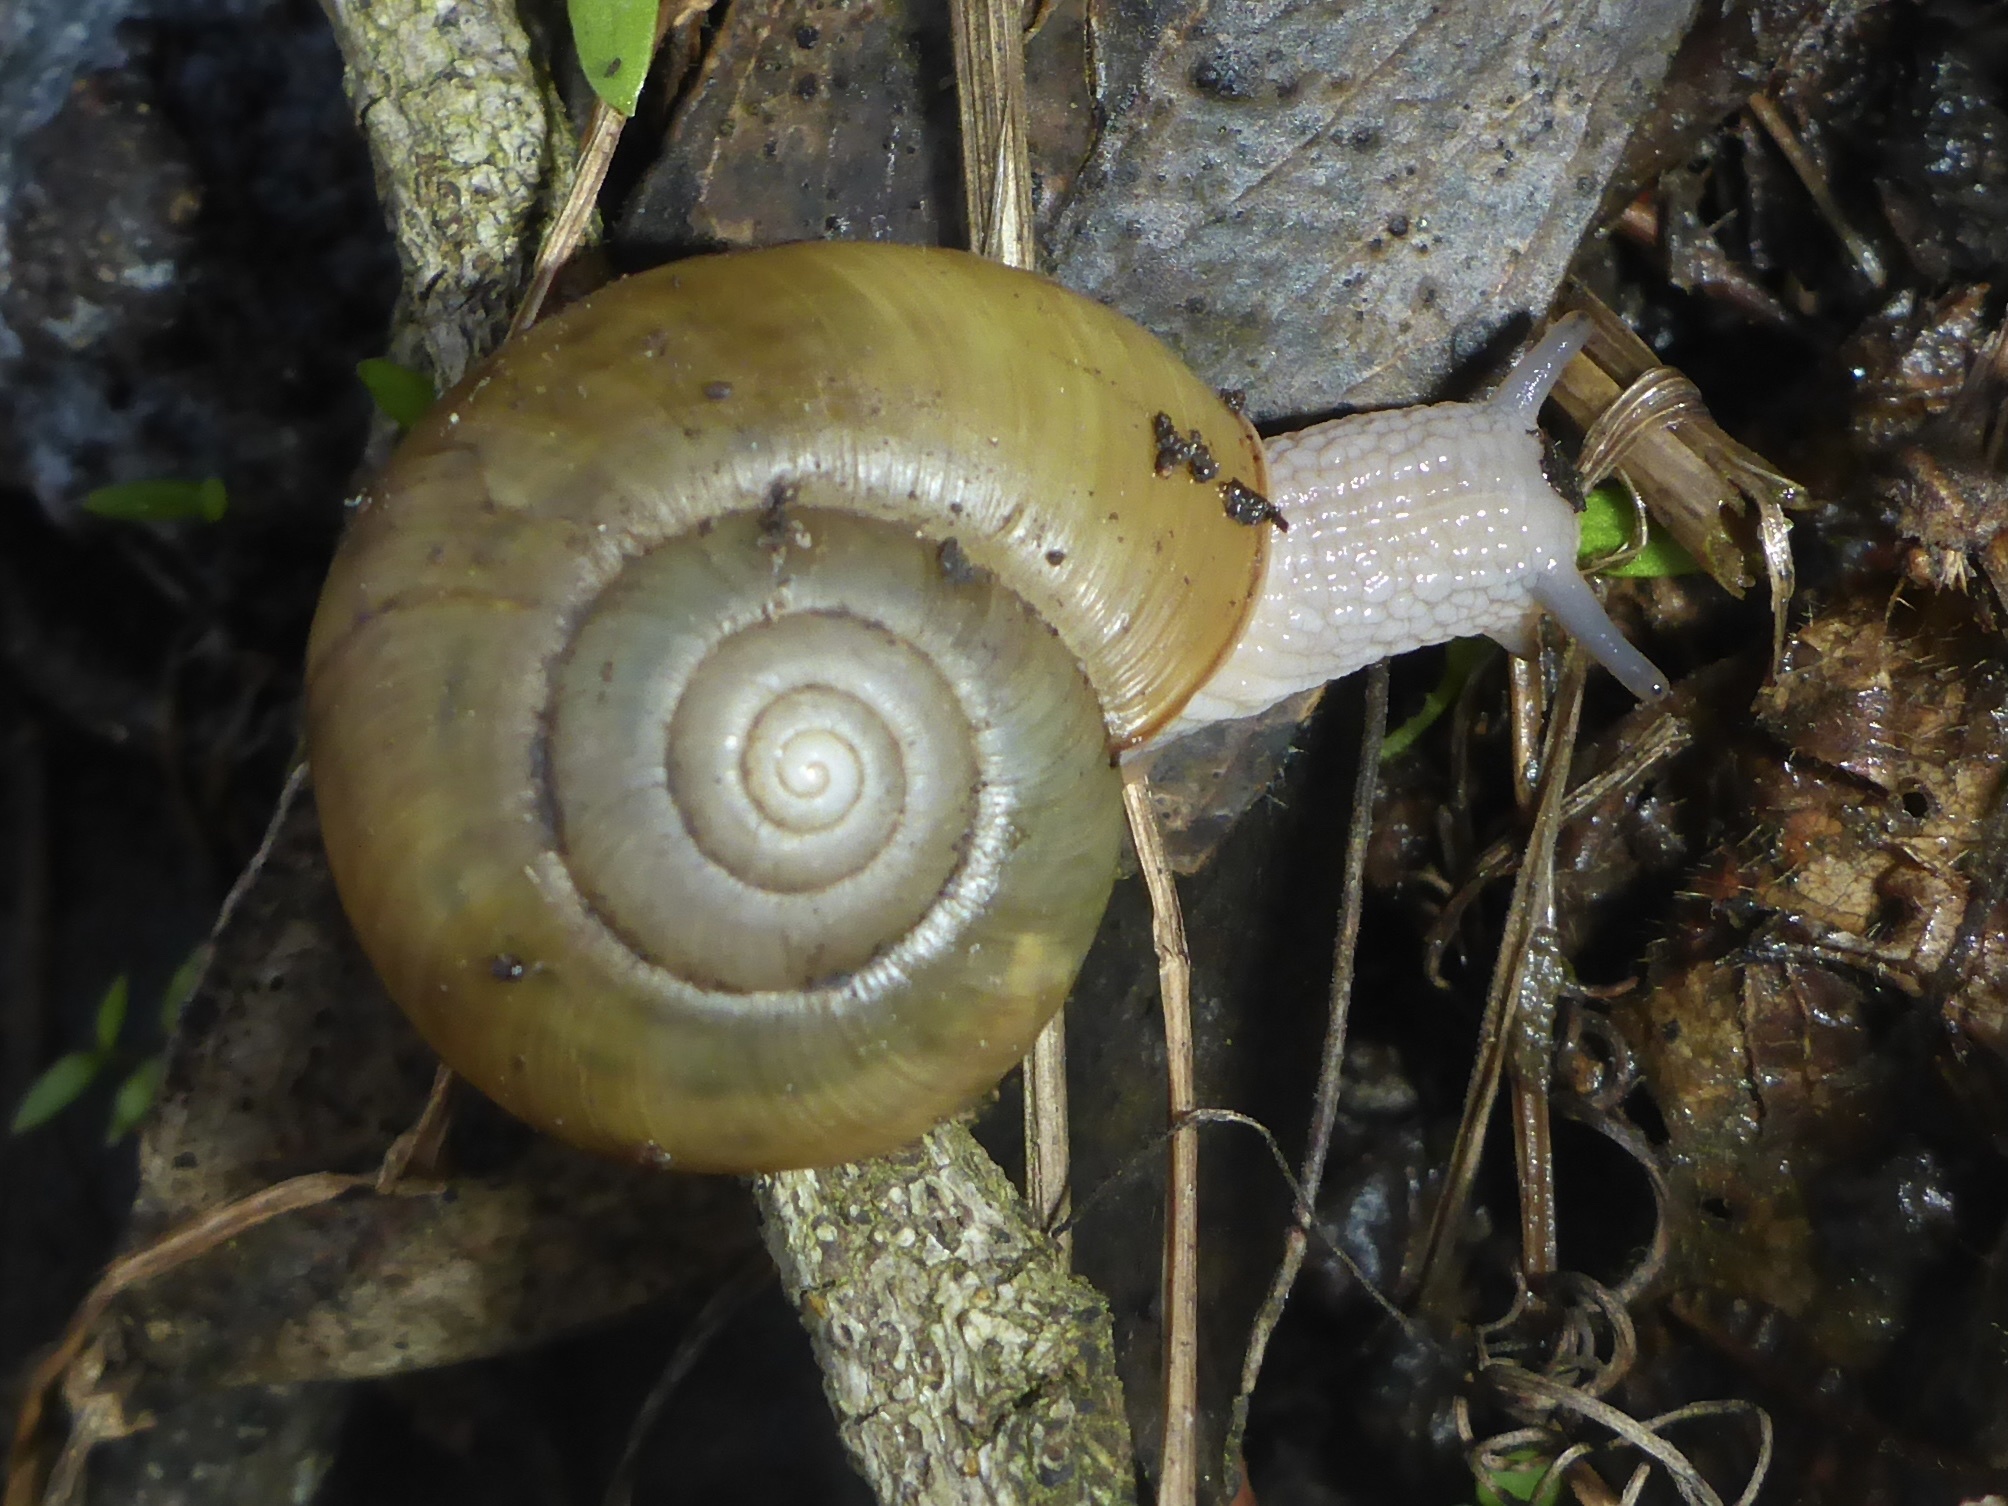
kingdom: Animalia
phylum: Mollusca
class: Gastropoda
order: Stylommatophora
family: Haplotrematidae
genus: Haplotrema
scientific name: Haplotrema minimum
